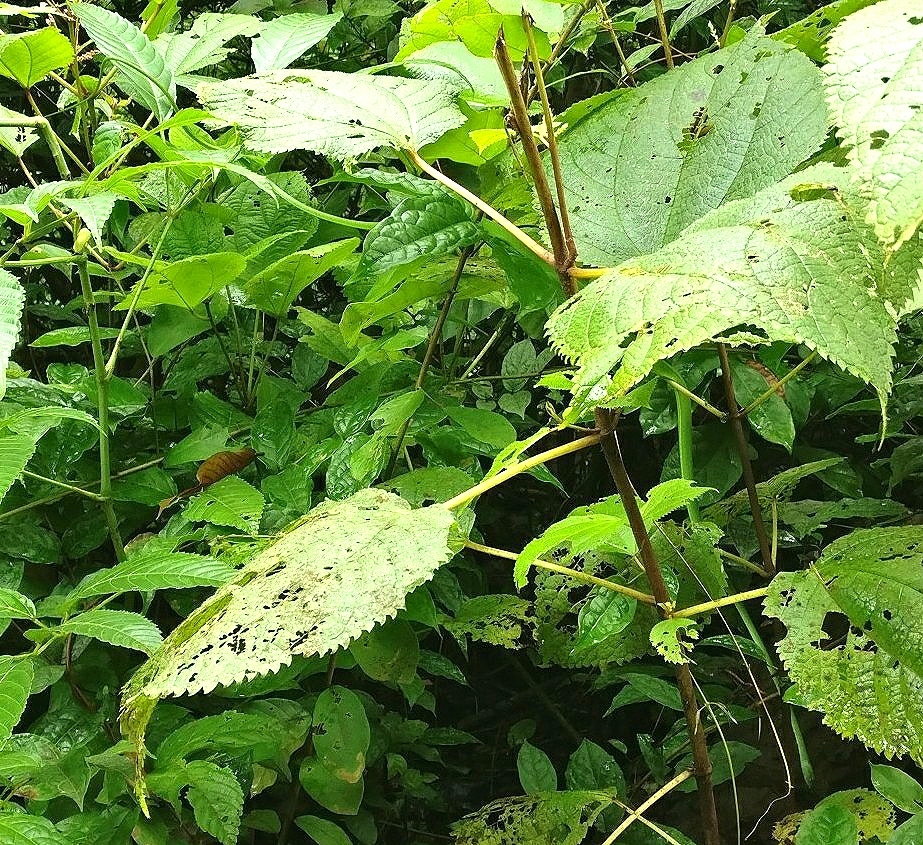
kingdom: Animalia
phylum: Chordata
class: Squamata
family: Colubridae
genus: Ahaetulla
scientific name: Ahaetulla borealis
